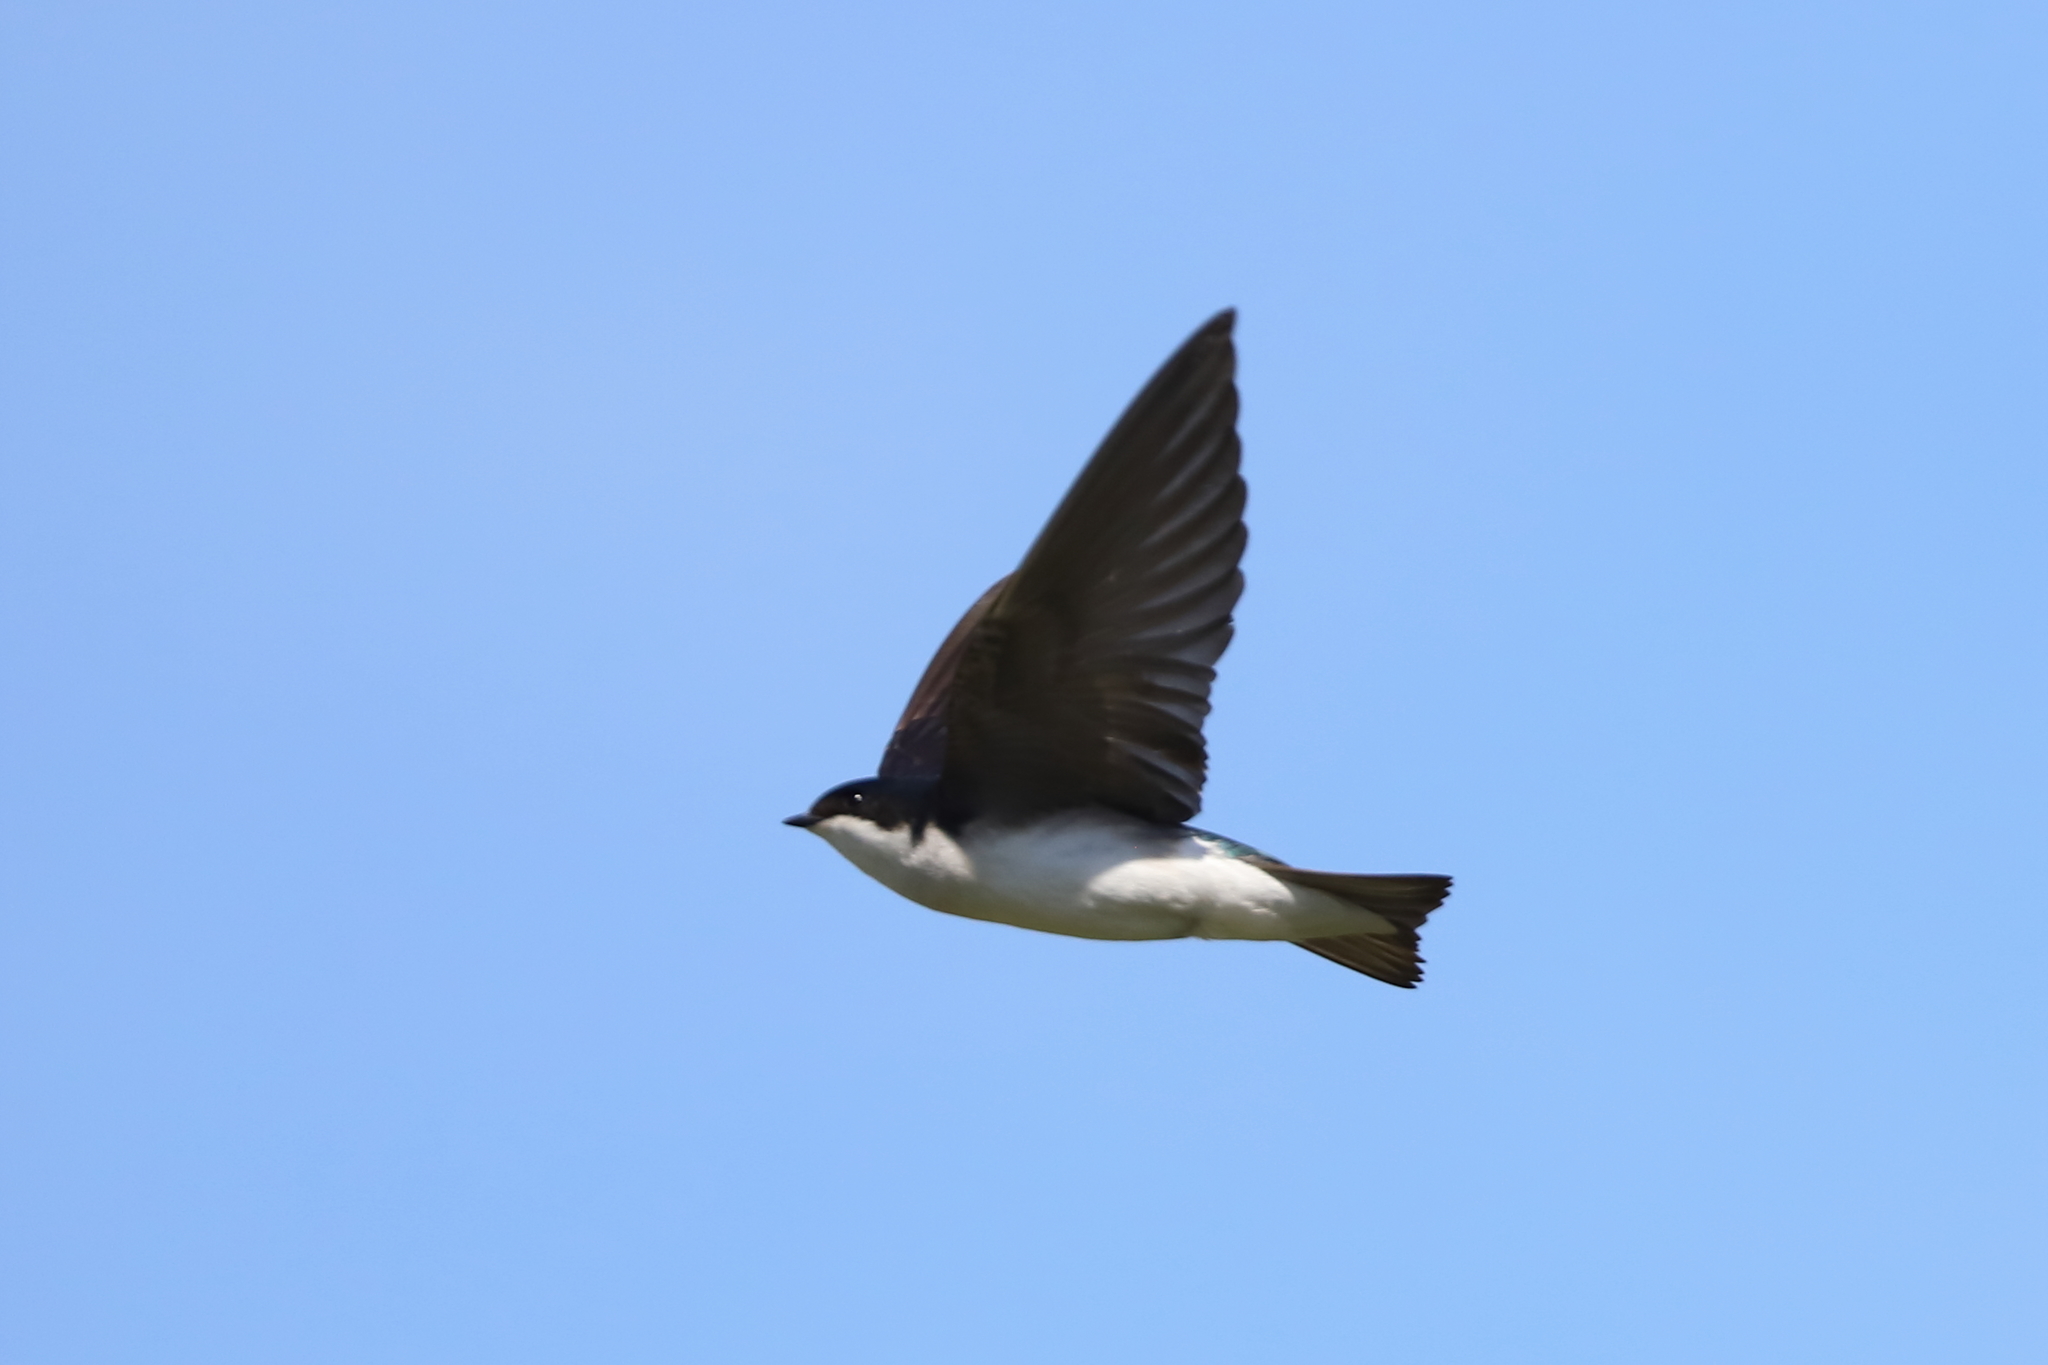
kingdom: Animalia
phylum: Chordata
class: Aves
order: Passeriformes
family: Hirundinidae
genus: Tachycineta
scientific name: Tachycineta bicolor
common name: Tree swallow
